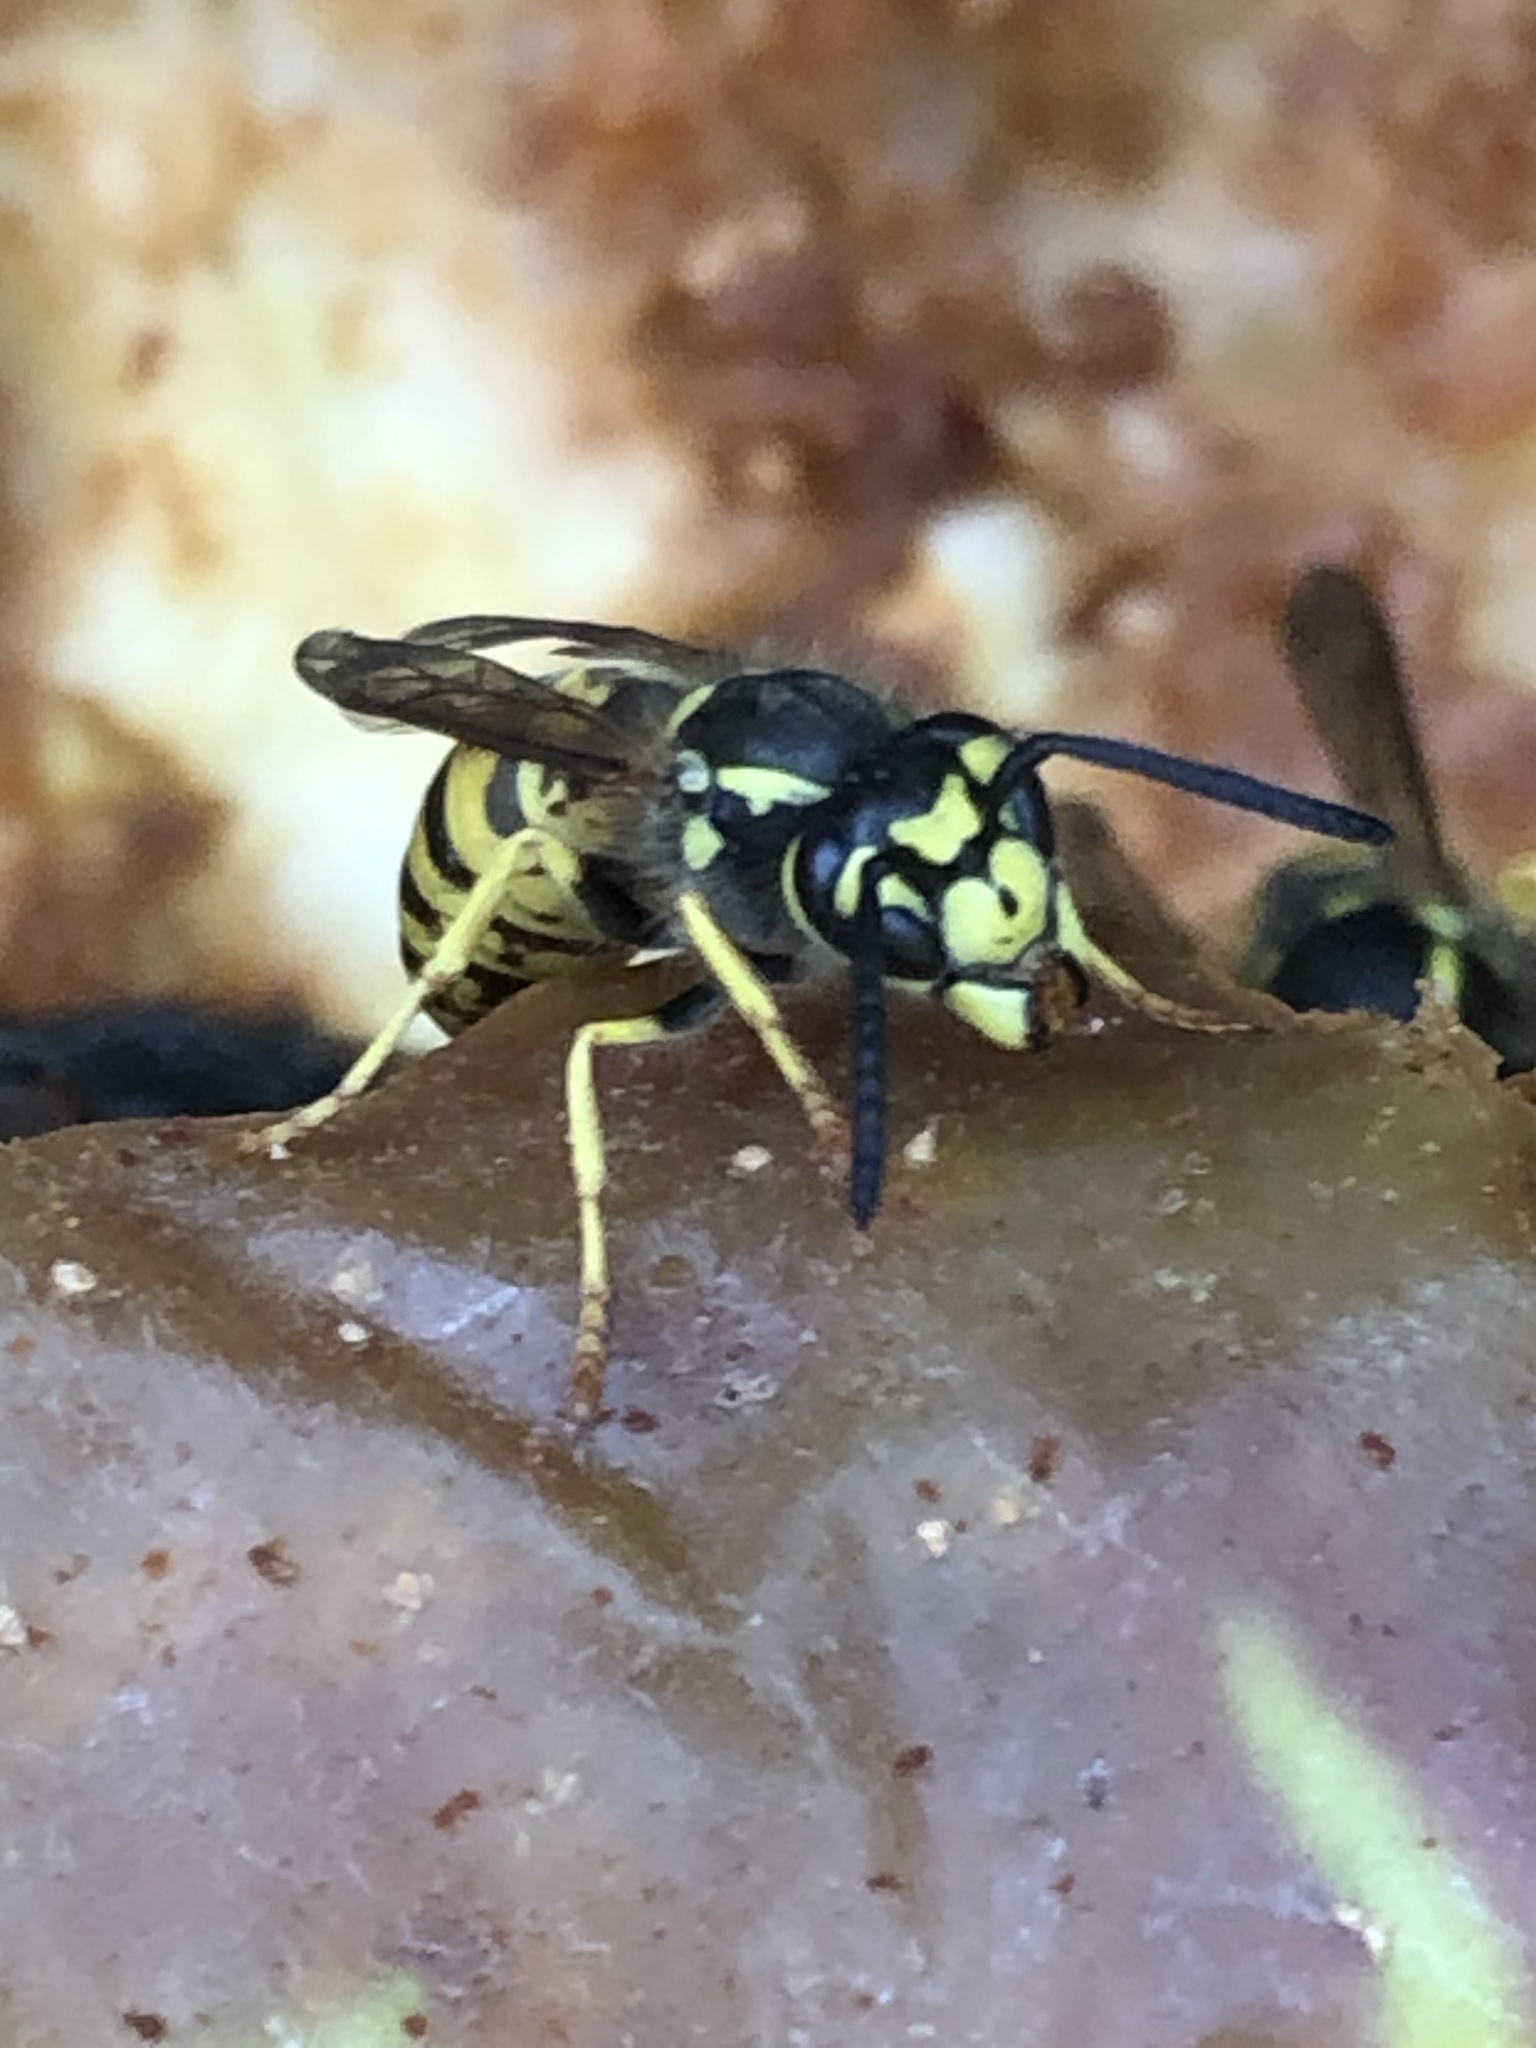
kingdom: Animalia
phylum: Arthropoda
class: Insecta
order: Hymenoptera
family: Vespidae
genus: Vespula
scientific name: Vespula germanica
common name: German wasp
